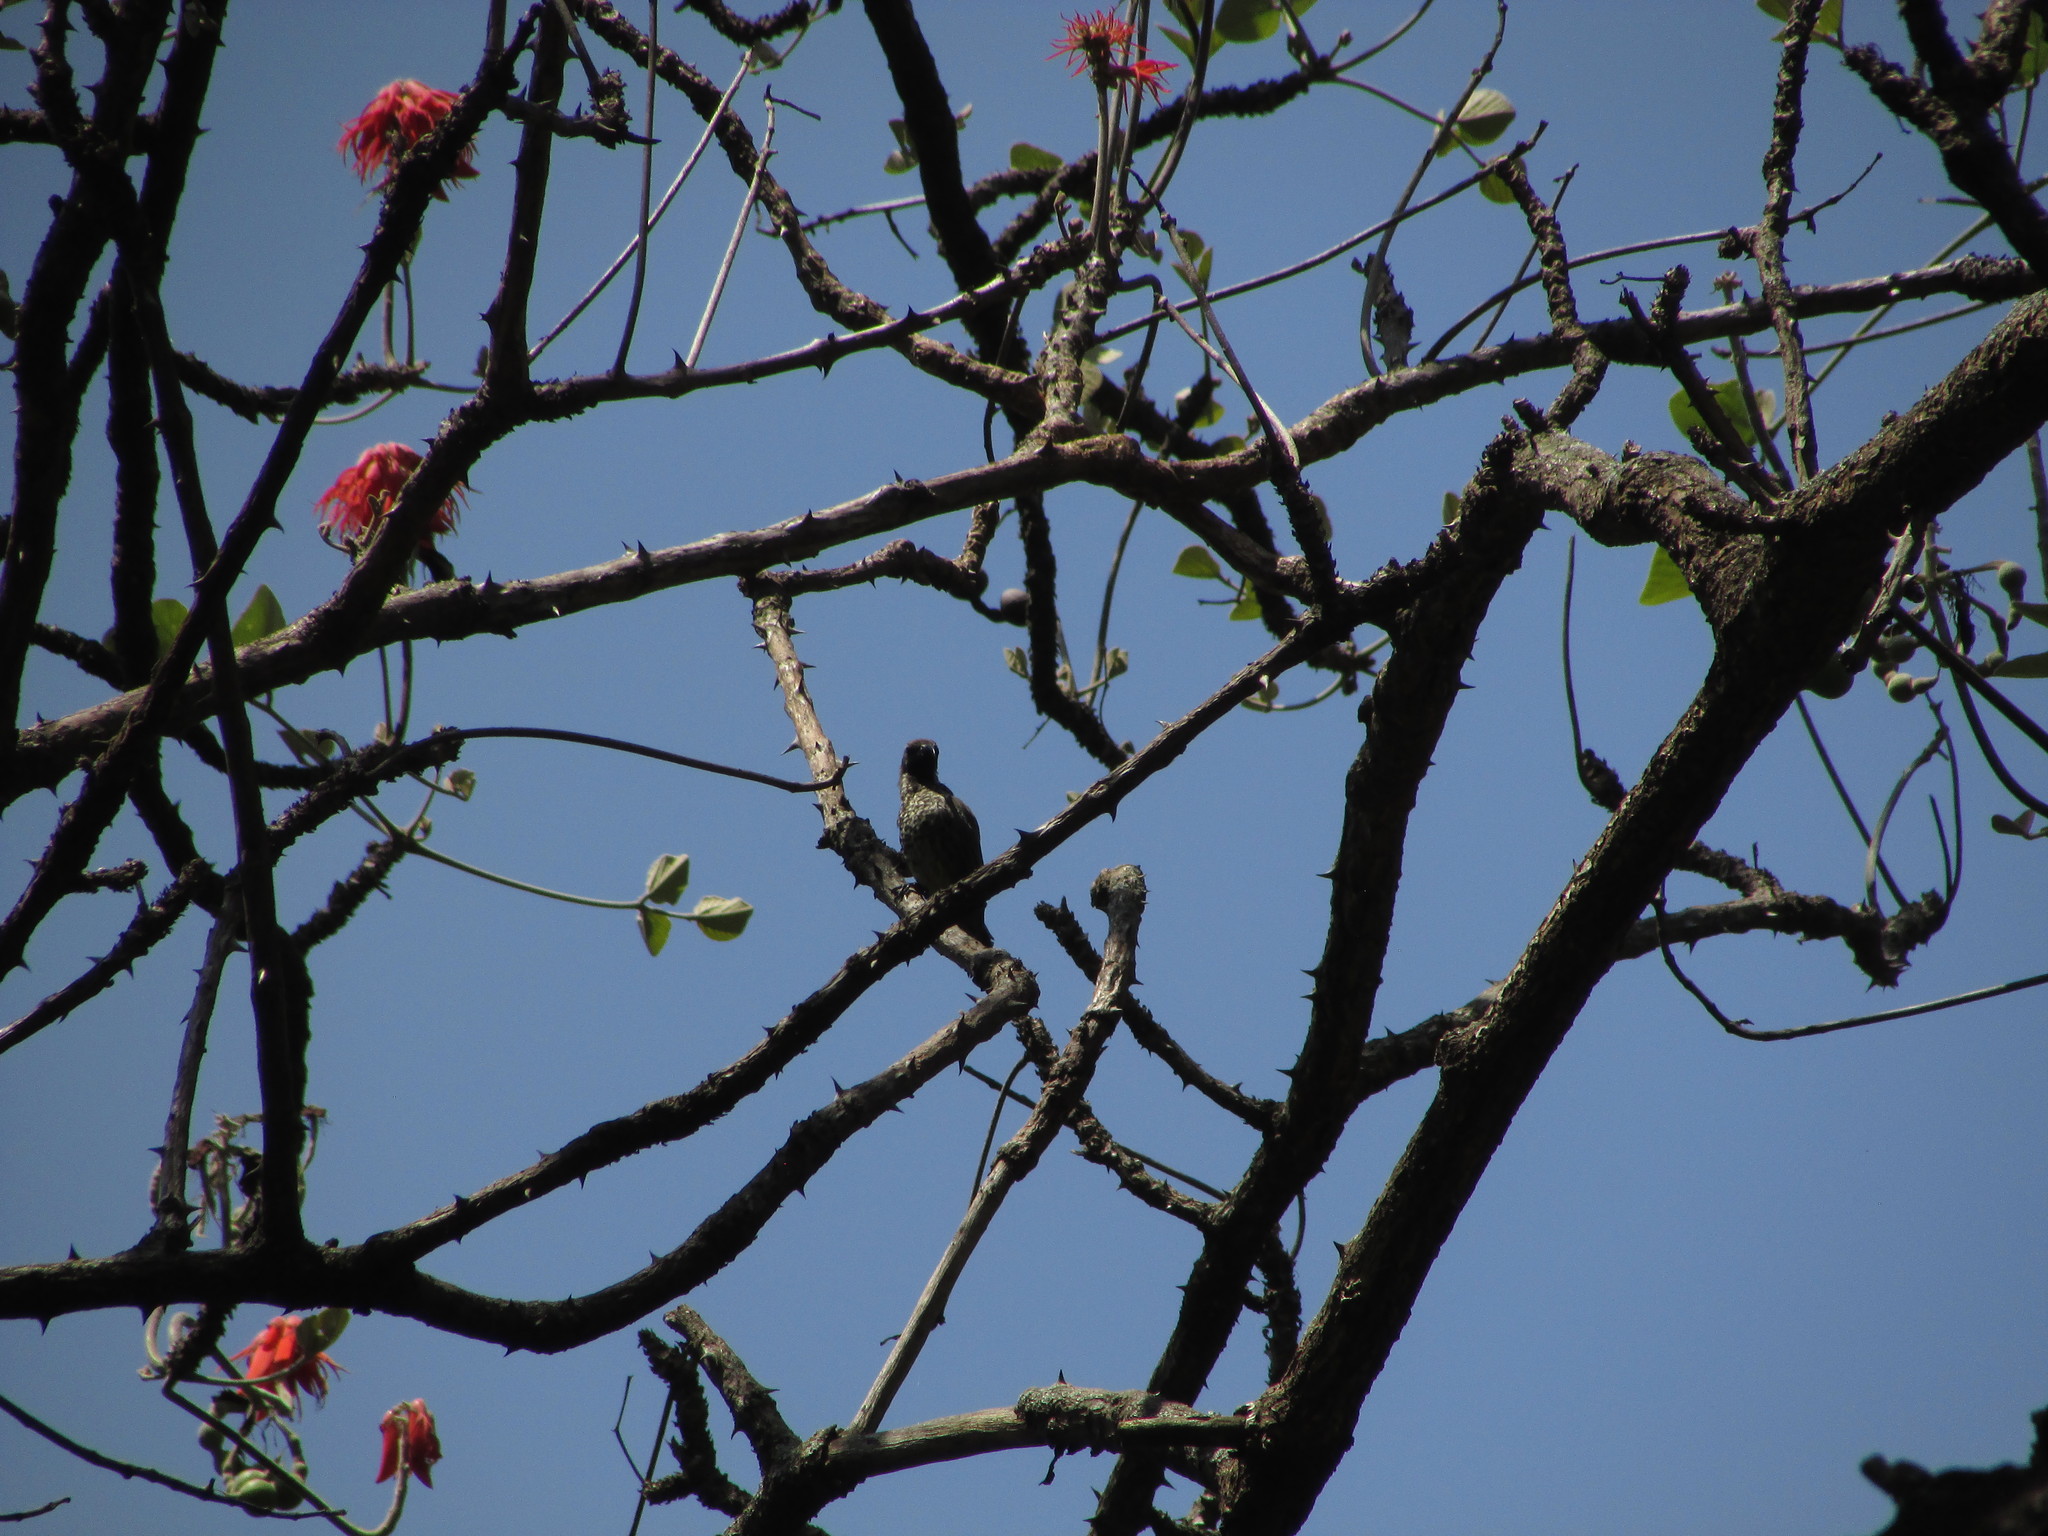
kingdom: Animalia
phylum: Chordata
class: Aves
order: Passeriformes
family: Nectariniidae
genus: Chalcomitra
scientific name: Chalcomitra amethystina
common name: Amethyst sunbird
